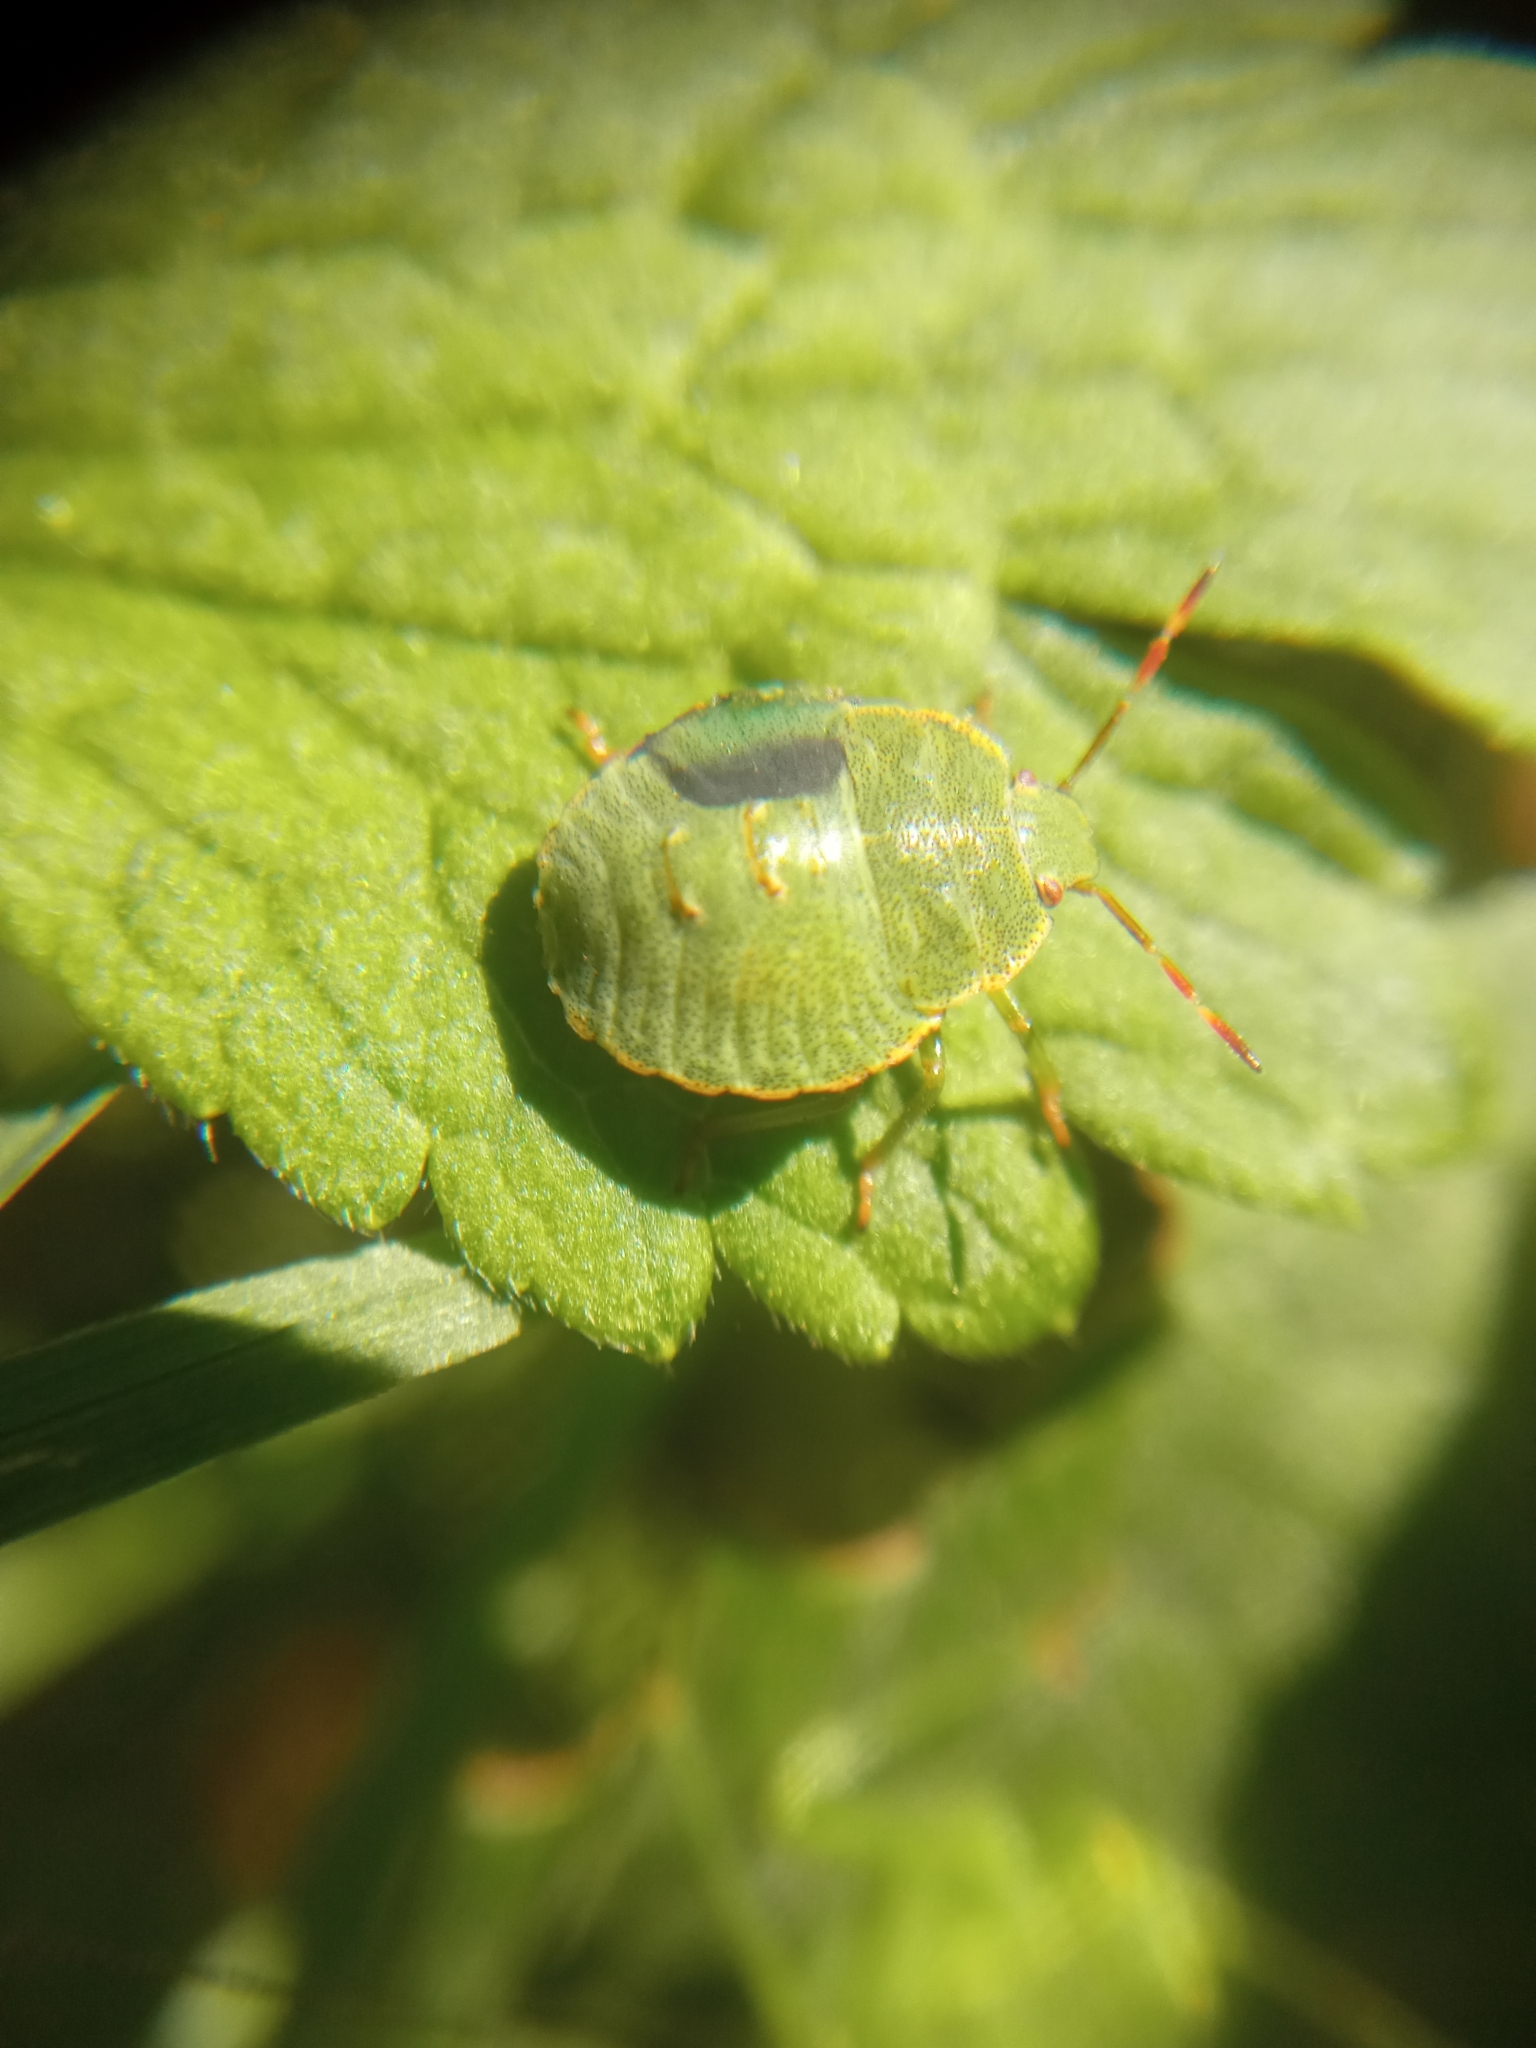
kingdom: Animalia
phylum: Arthropoda
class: Insecta
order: Hemiptera
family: Pentatomidae
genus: Palomena
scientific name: Palomena prasina
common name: Green shieldbug
